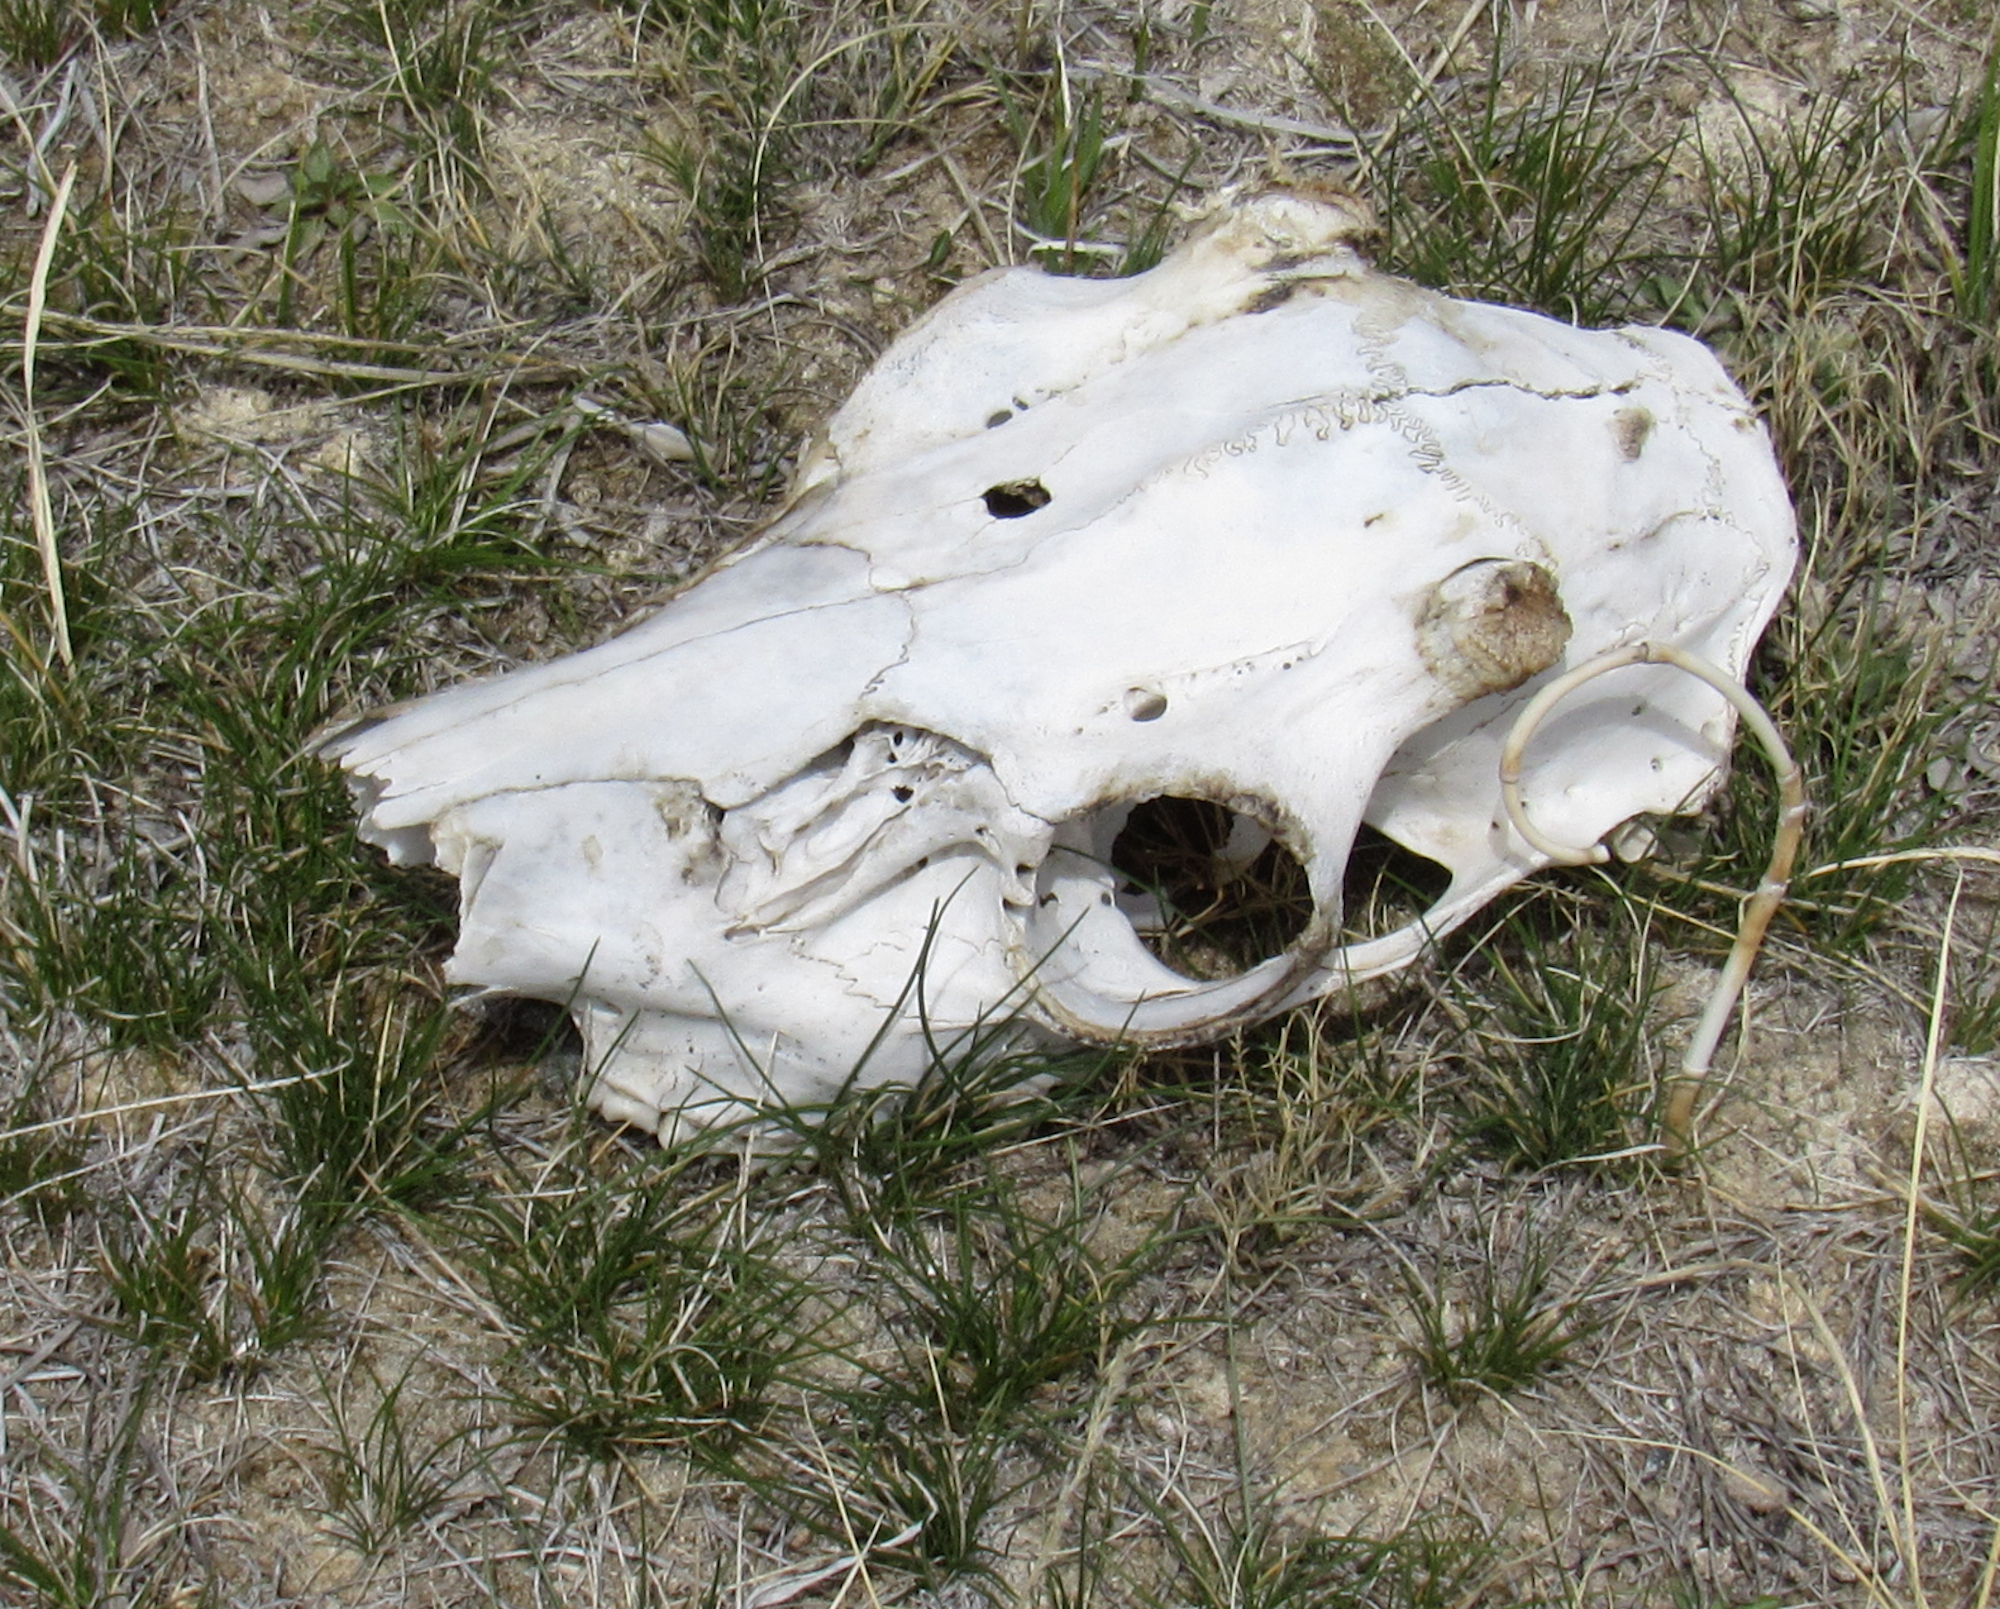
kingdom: Animalia
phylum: Chordata
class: Mammalia
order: Artiodactyla
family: Cervidae
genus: Odocoileus
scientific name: Odocoileus hemionus
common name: Mule deer
